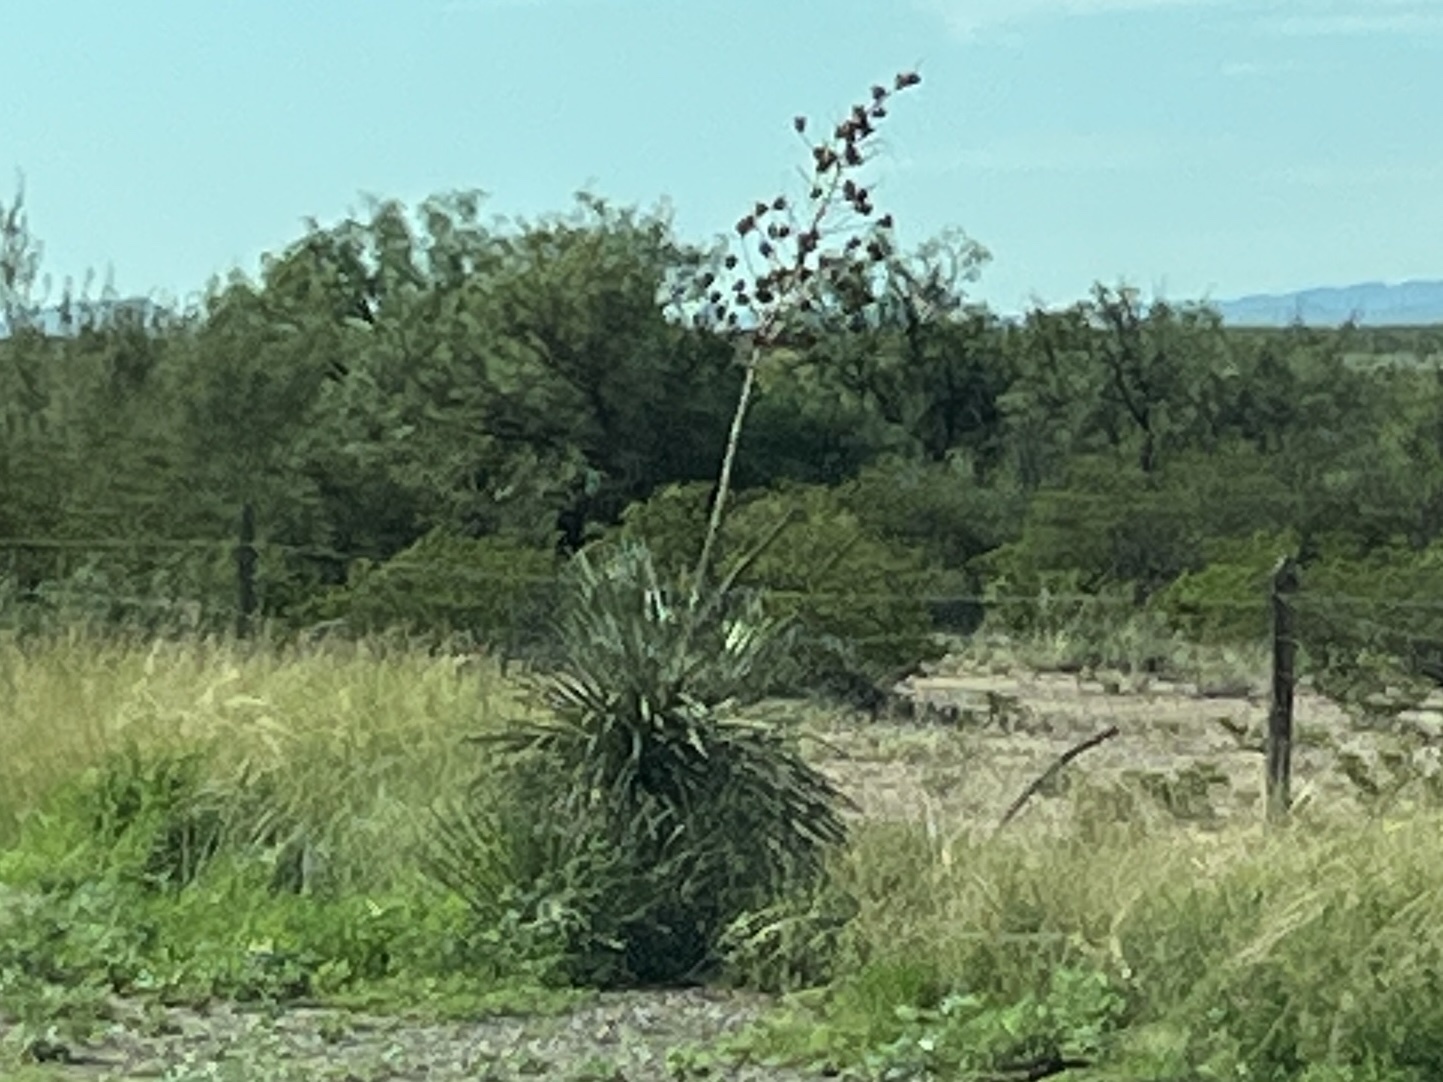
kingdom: Plantae
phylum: Tracheophyta
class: Liliopsida
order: Asparagales
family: Asparagaceae
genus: Yucca
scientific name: Yucca elata
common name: Palmella
